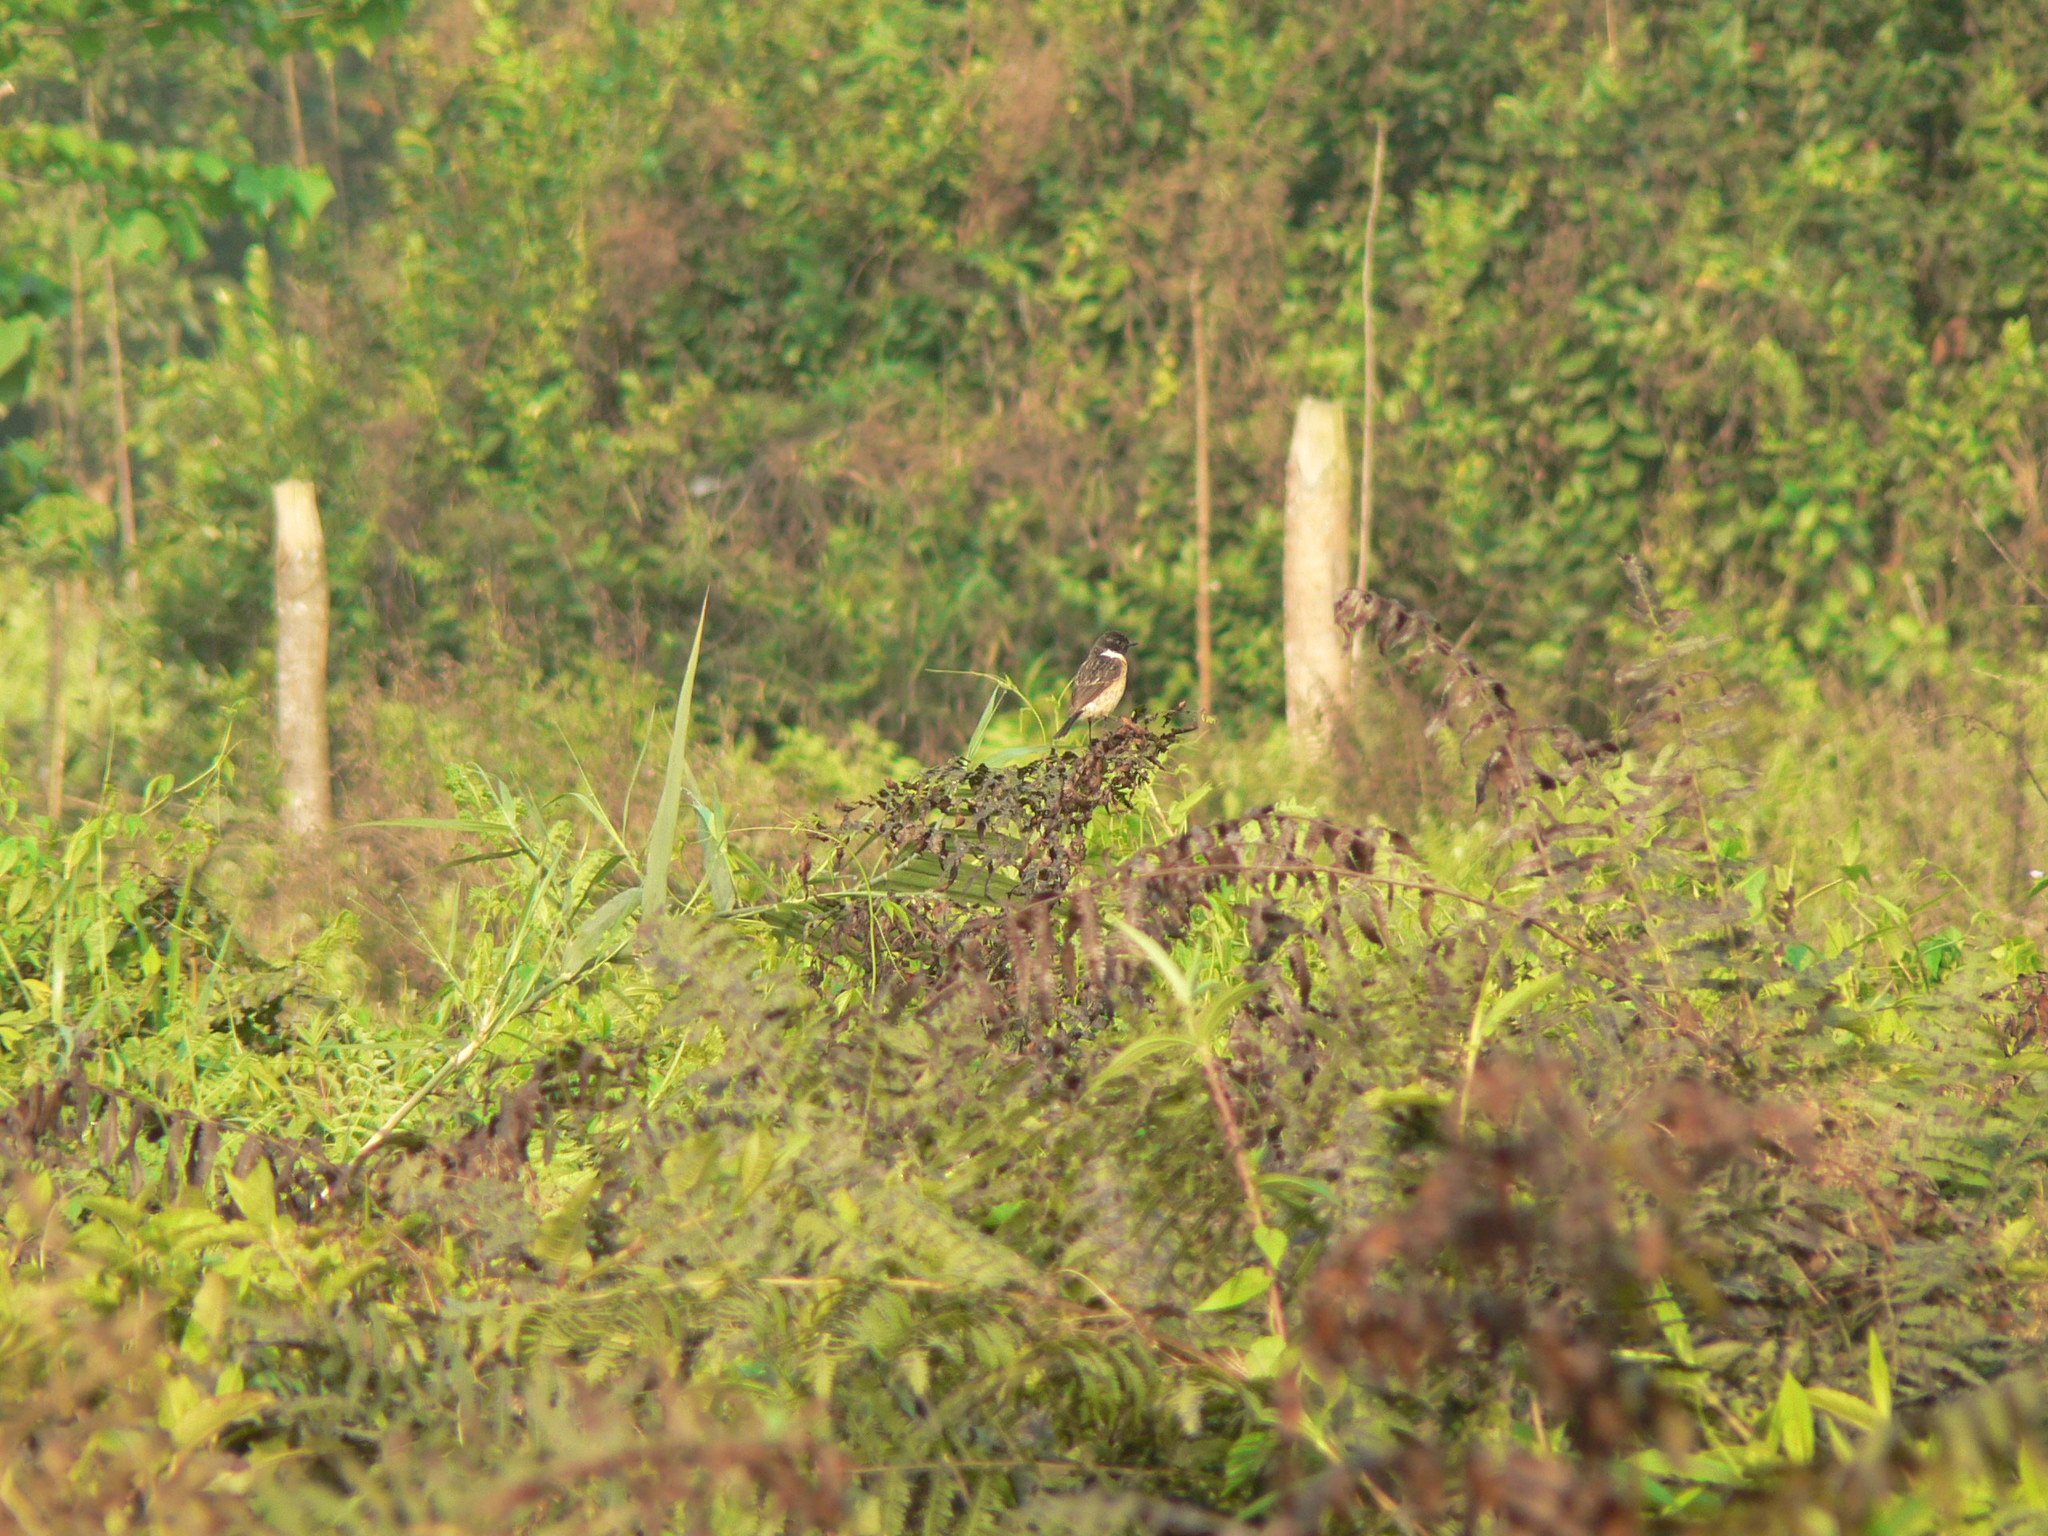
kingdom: Animalia
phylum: Chordata
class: Aves
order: Passeriformes
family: Muscicapidae
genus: Saxicola
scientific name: Saxicola maurus
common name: Siberian stonechat
